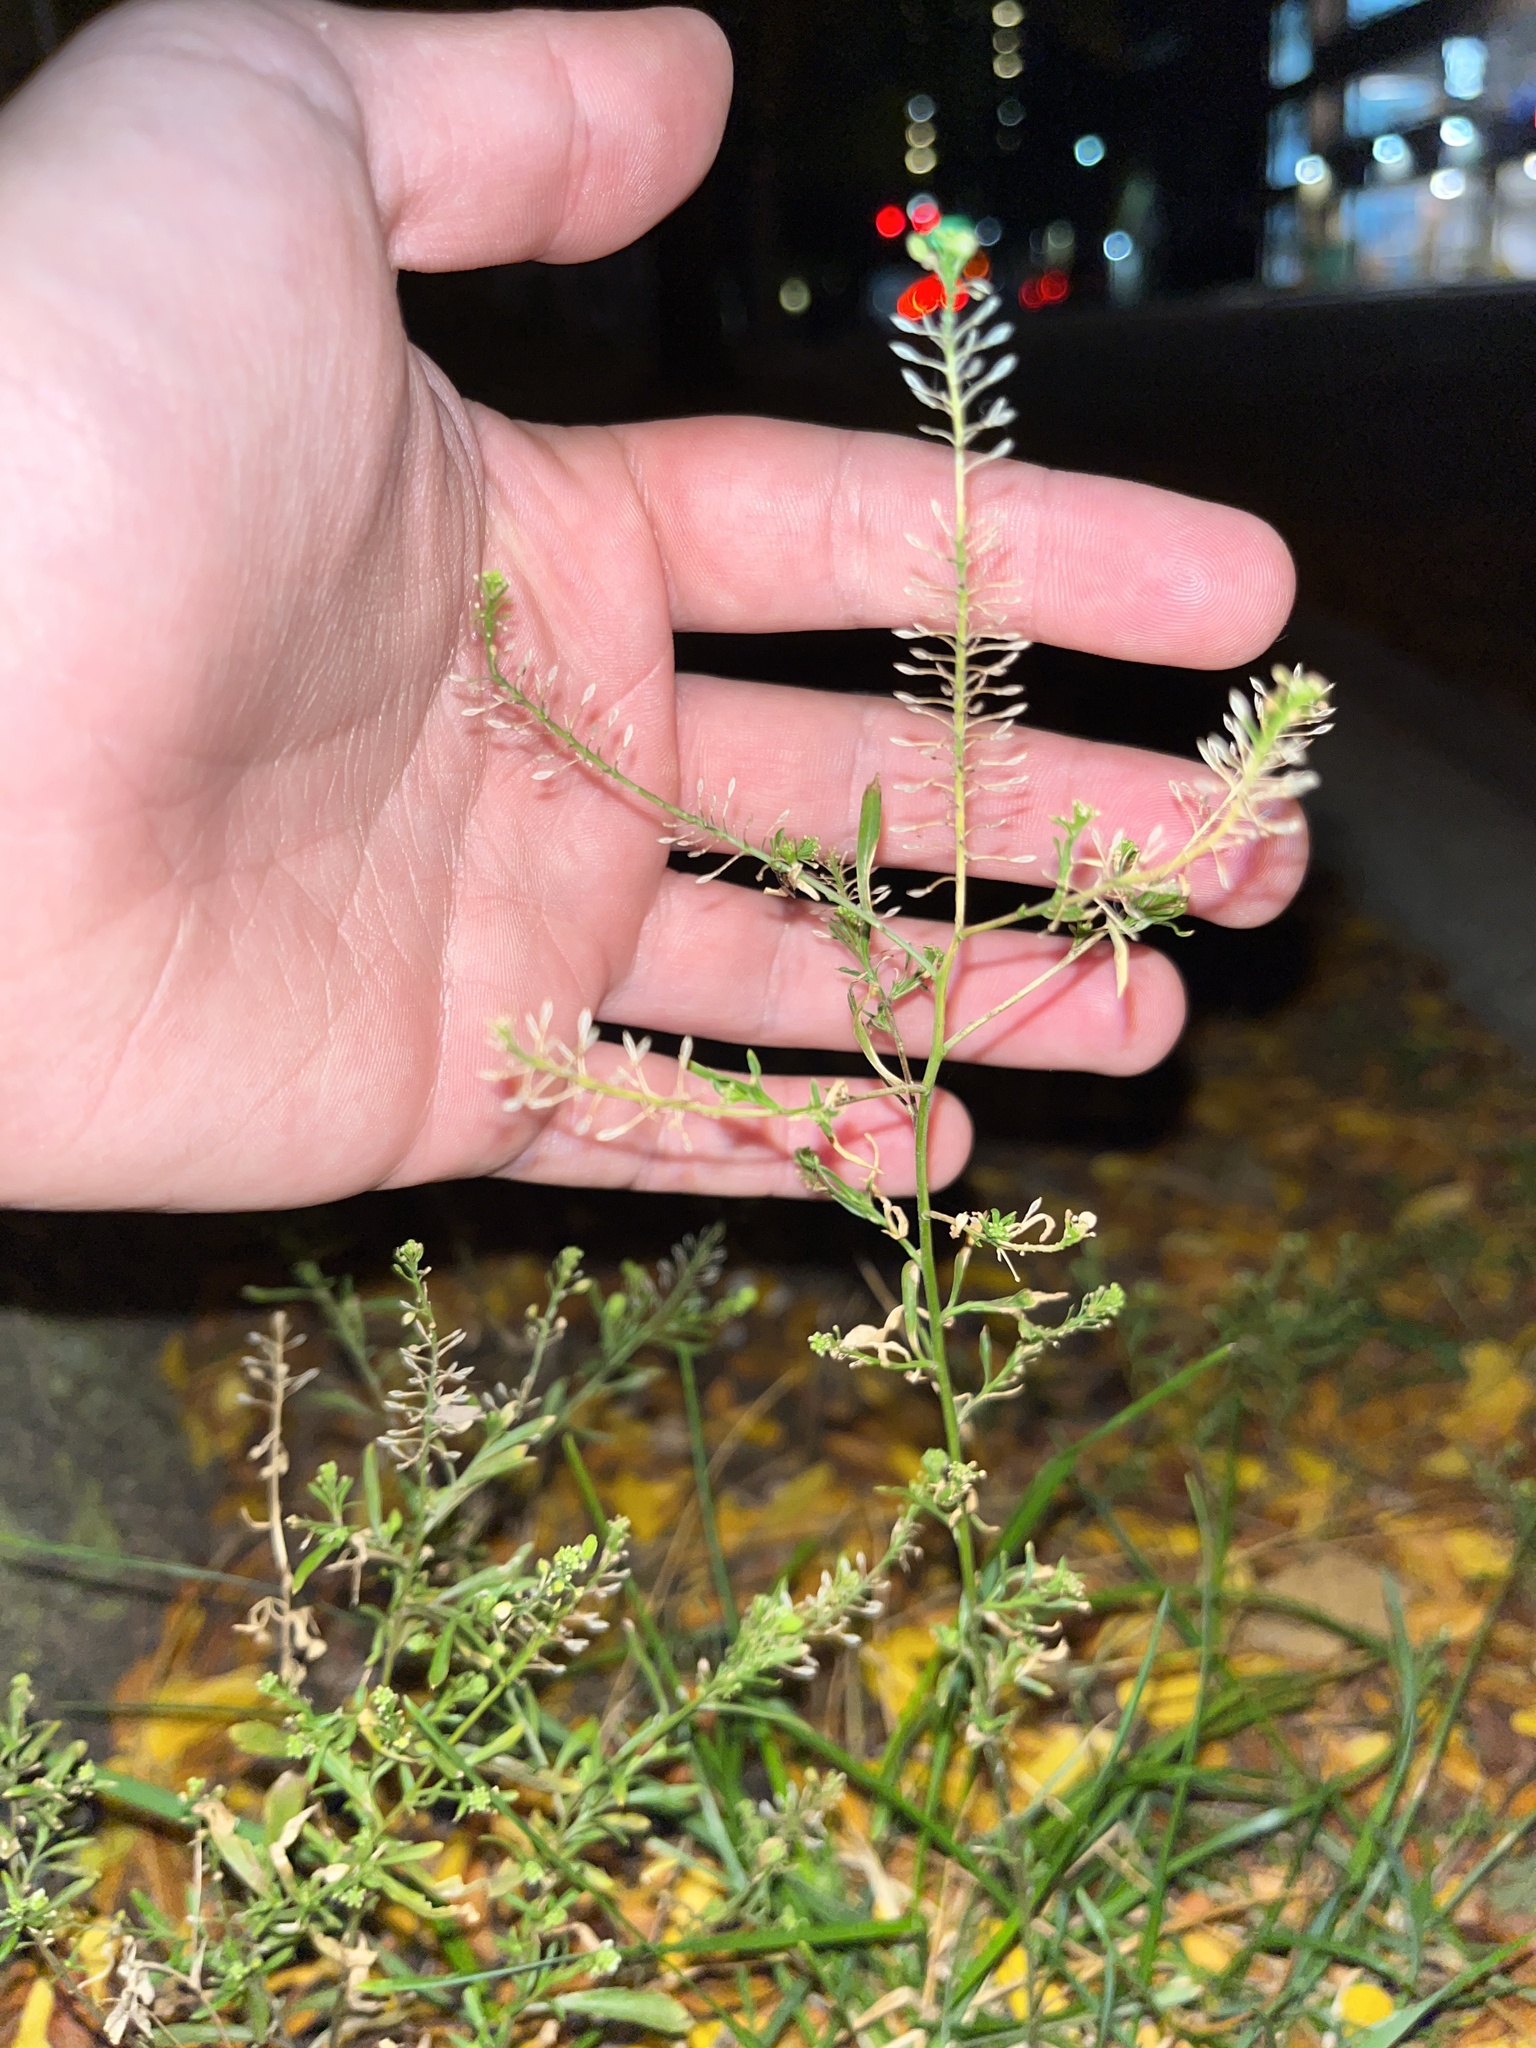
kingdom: Plantae
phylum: Tracheophyta
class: Magnoliopsida
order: Brassicales
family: Brassicaceae
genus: Lepidium
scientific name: Lepidium virginicum
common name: Least pepperwort
